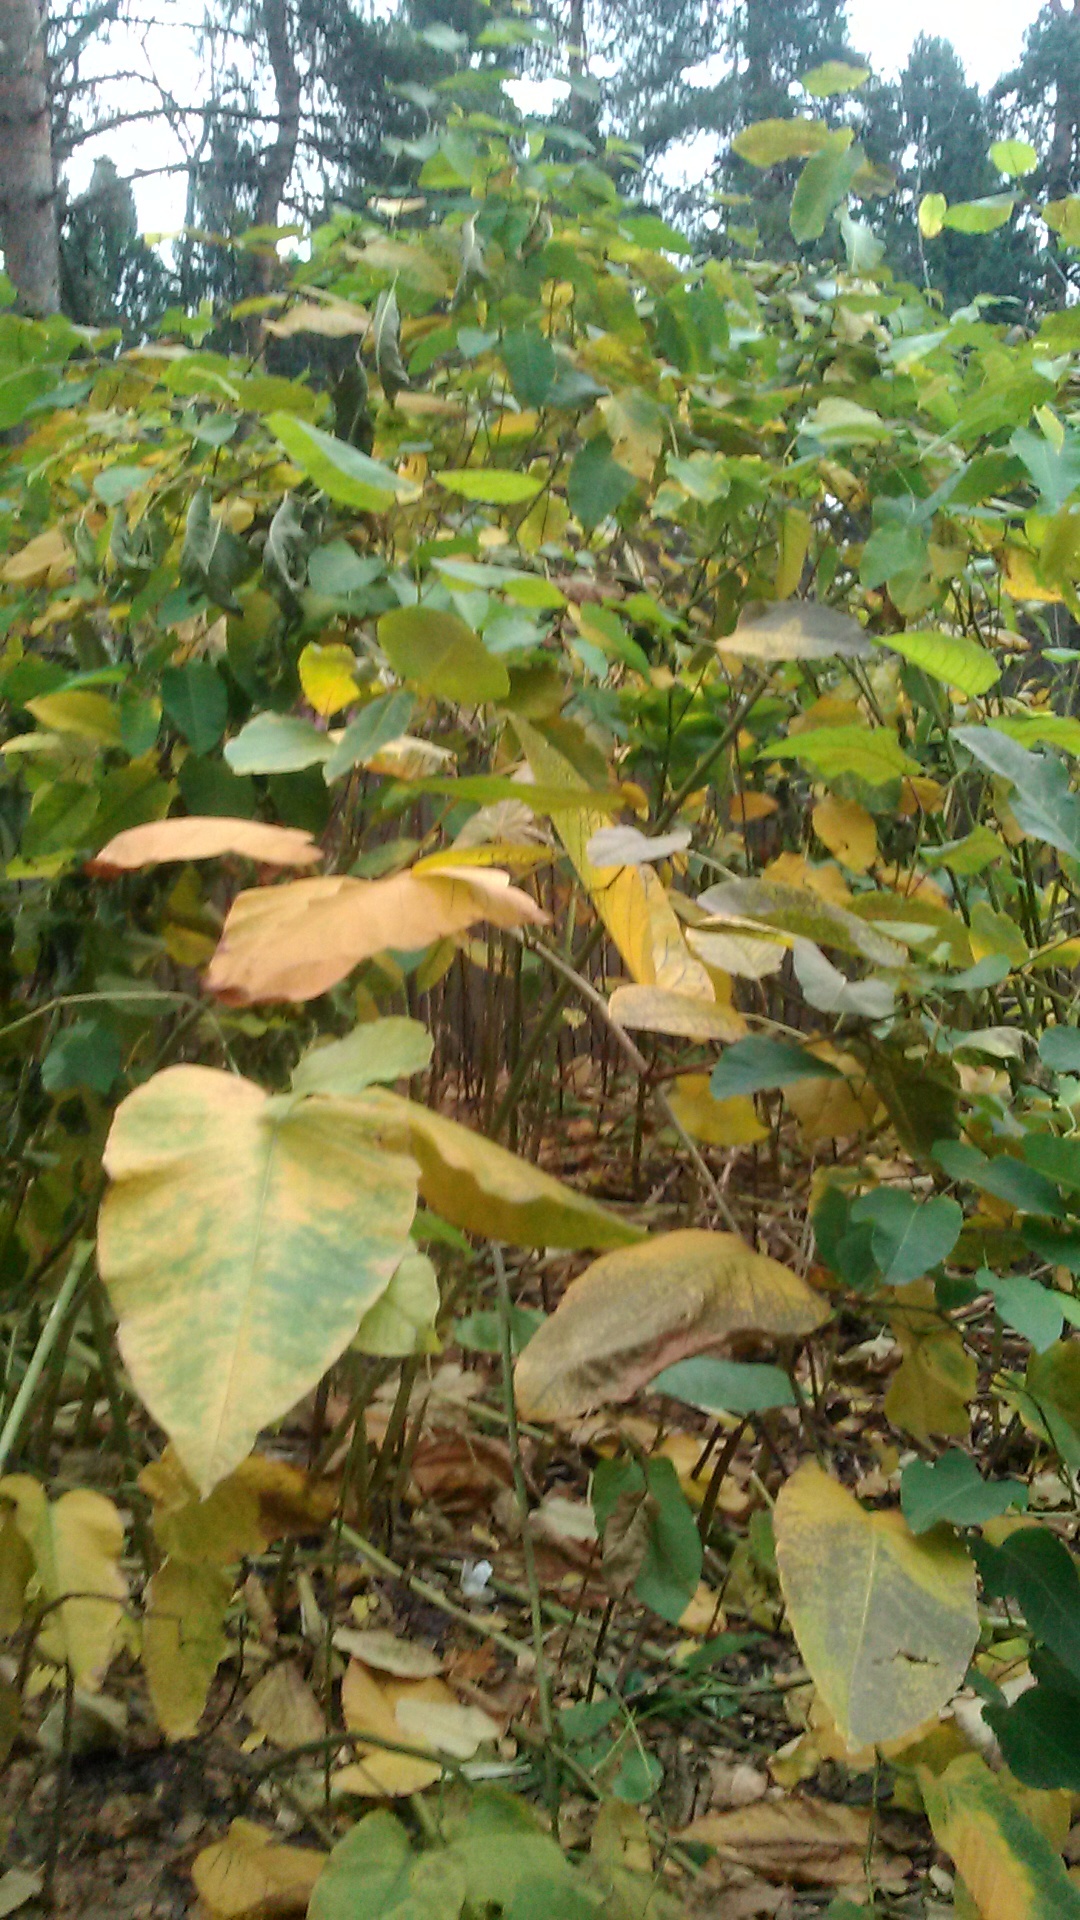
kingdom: Plantae
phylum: Tracheophyta
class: Magnoliopsida
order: Caryophyllales
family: Polygonaceae
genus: Reynoutria
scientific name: Reynoutria bohemica
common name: Bohemian knotweed
